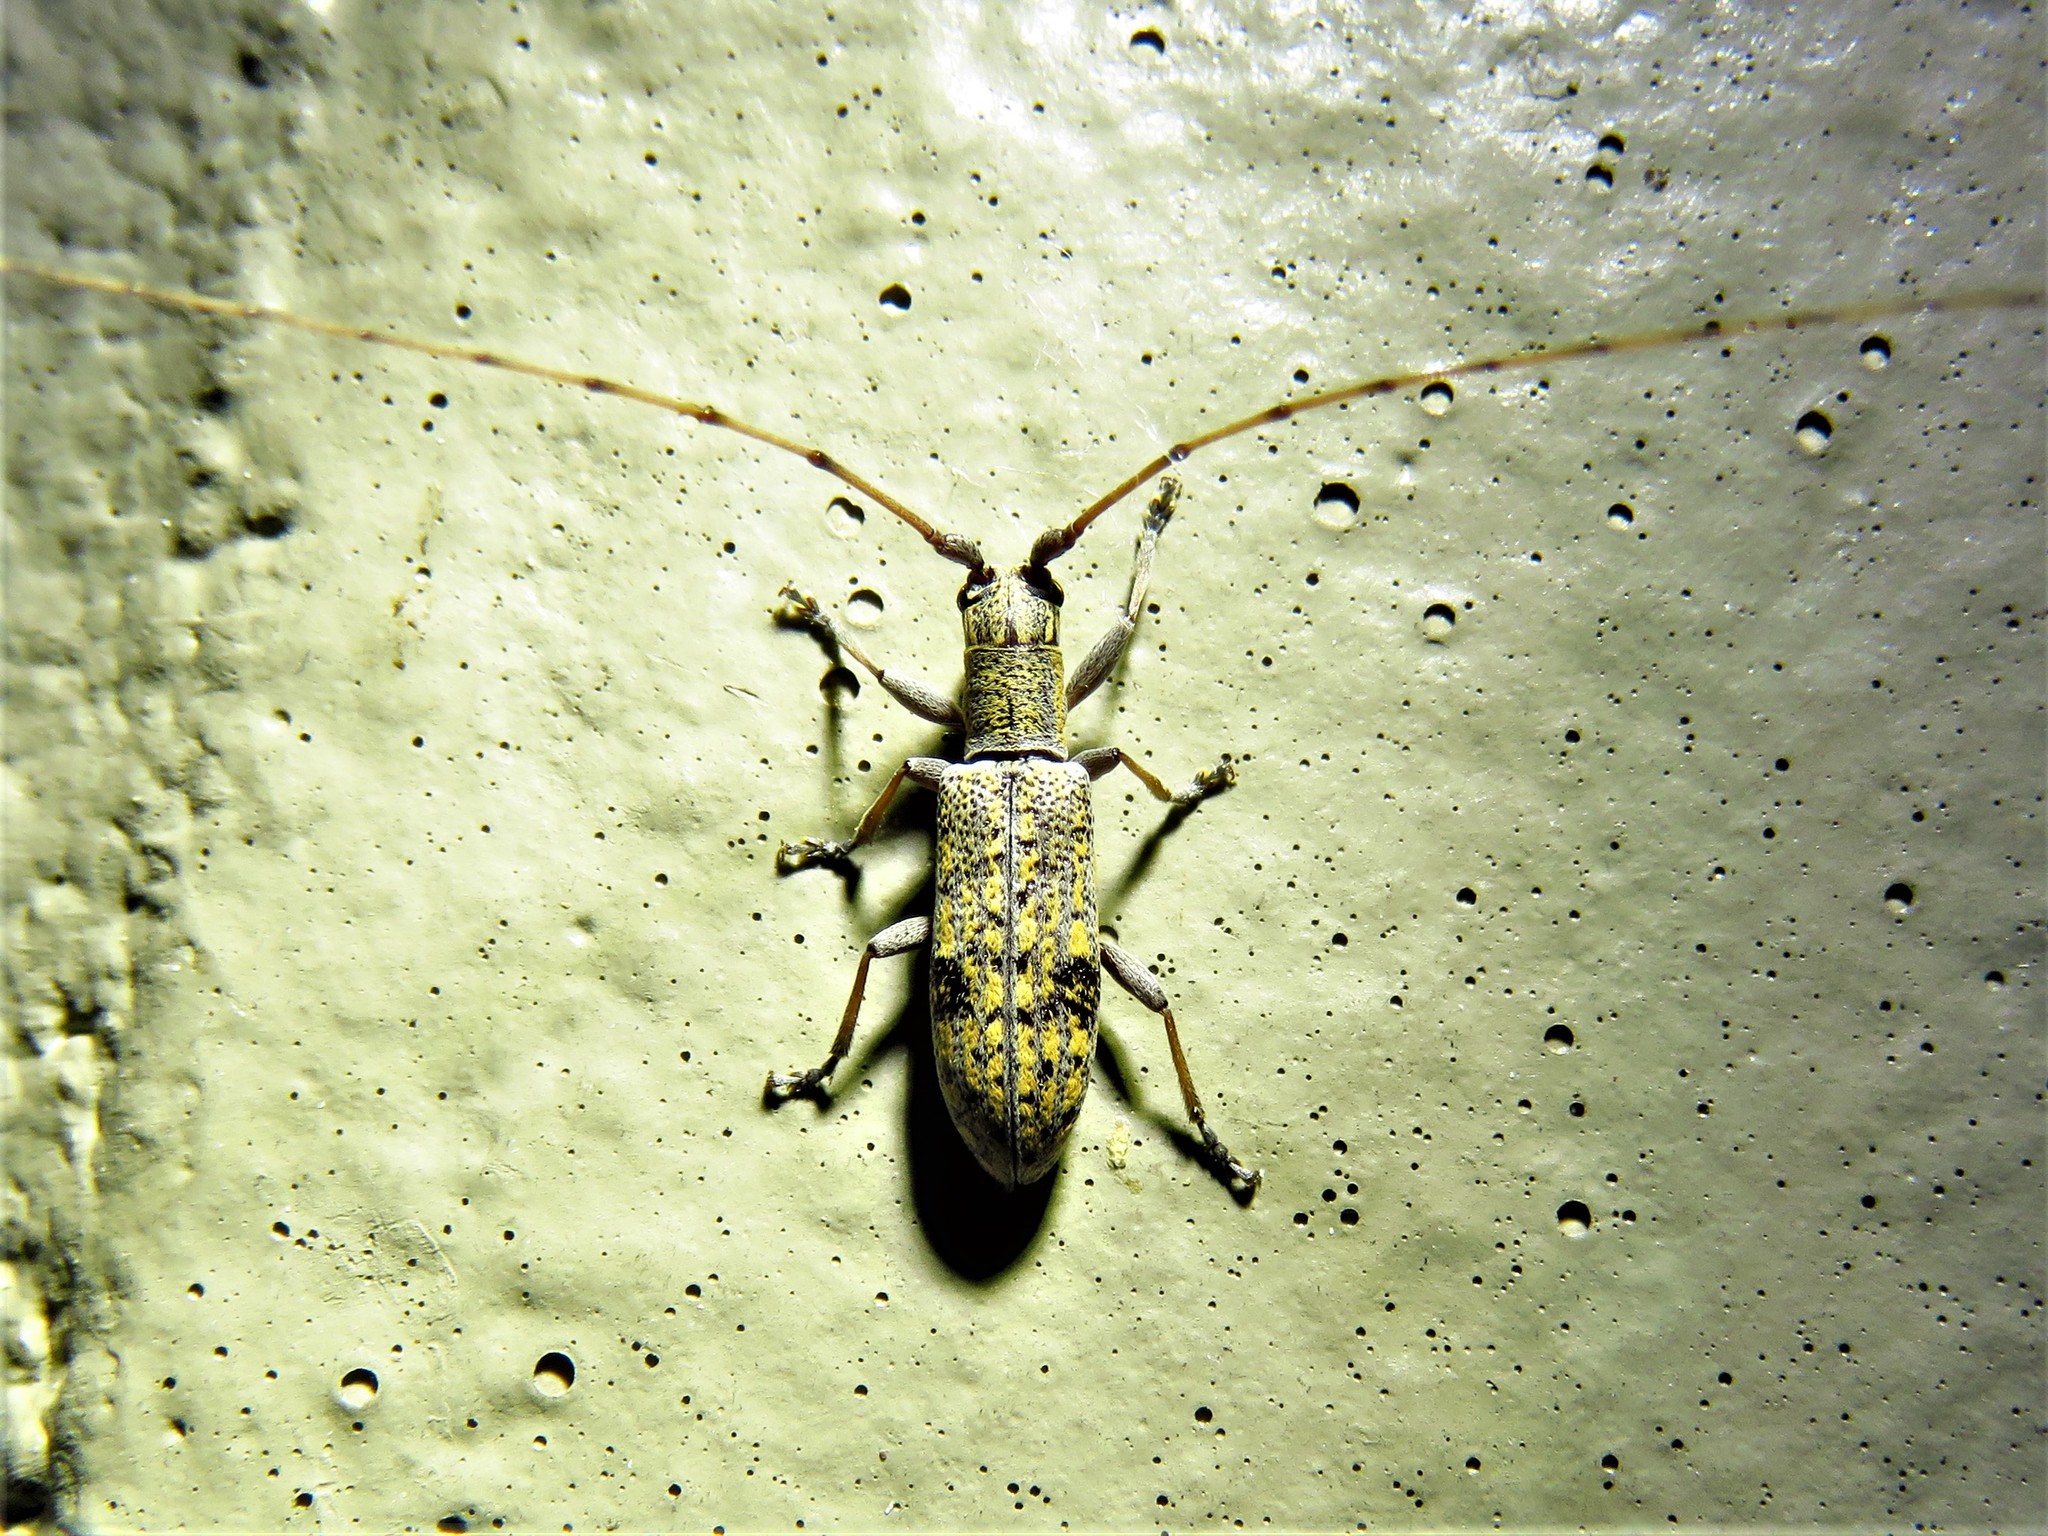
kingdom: Animalia
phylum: Arthropoda
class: Insecta
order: Coleoptera
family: Cerambycidae
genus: Dorcaschema
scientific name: Dorcaschema alternatum
